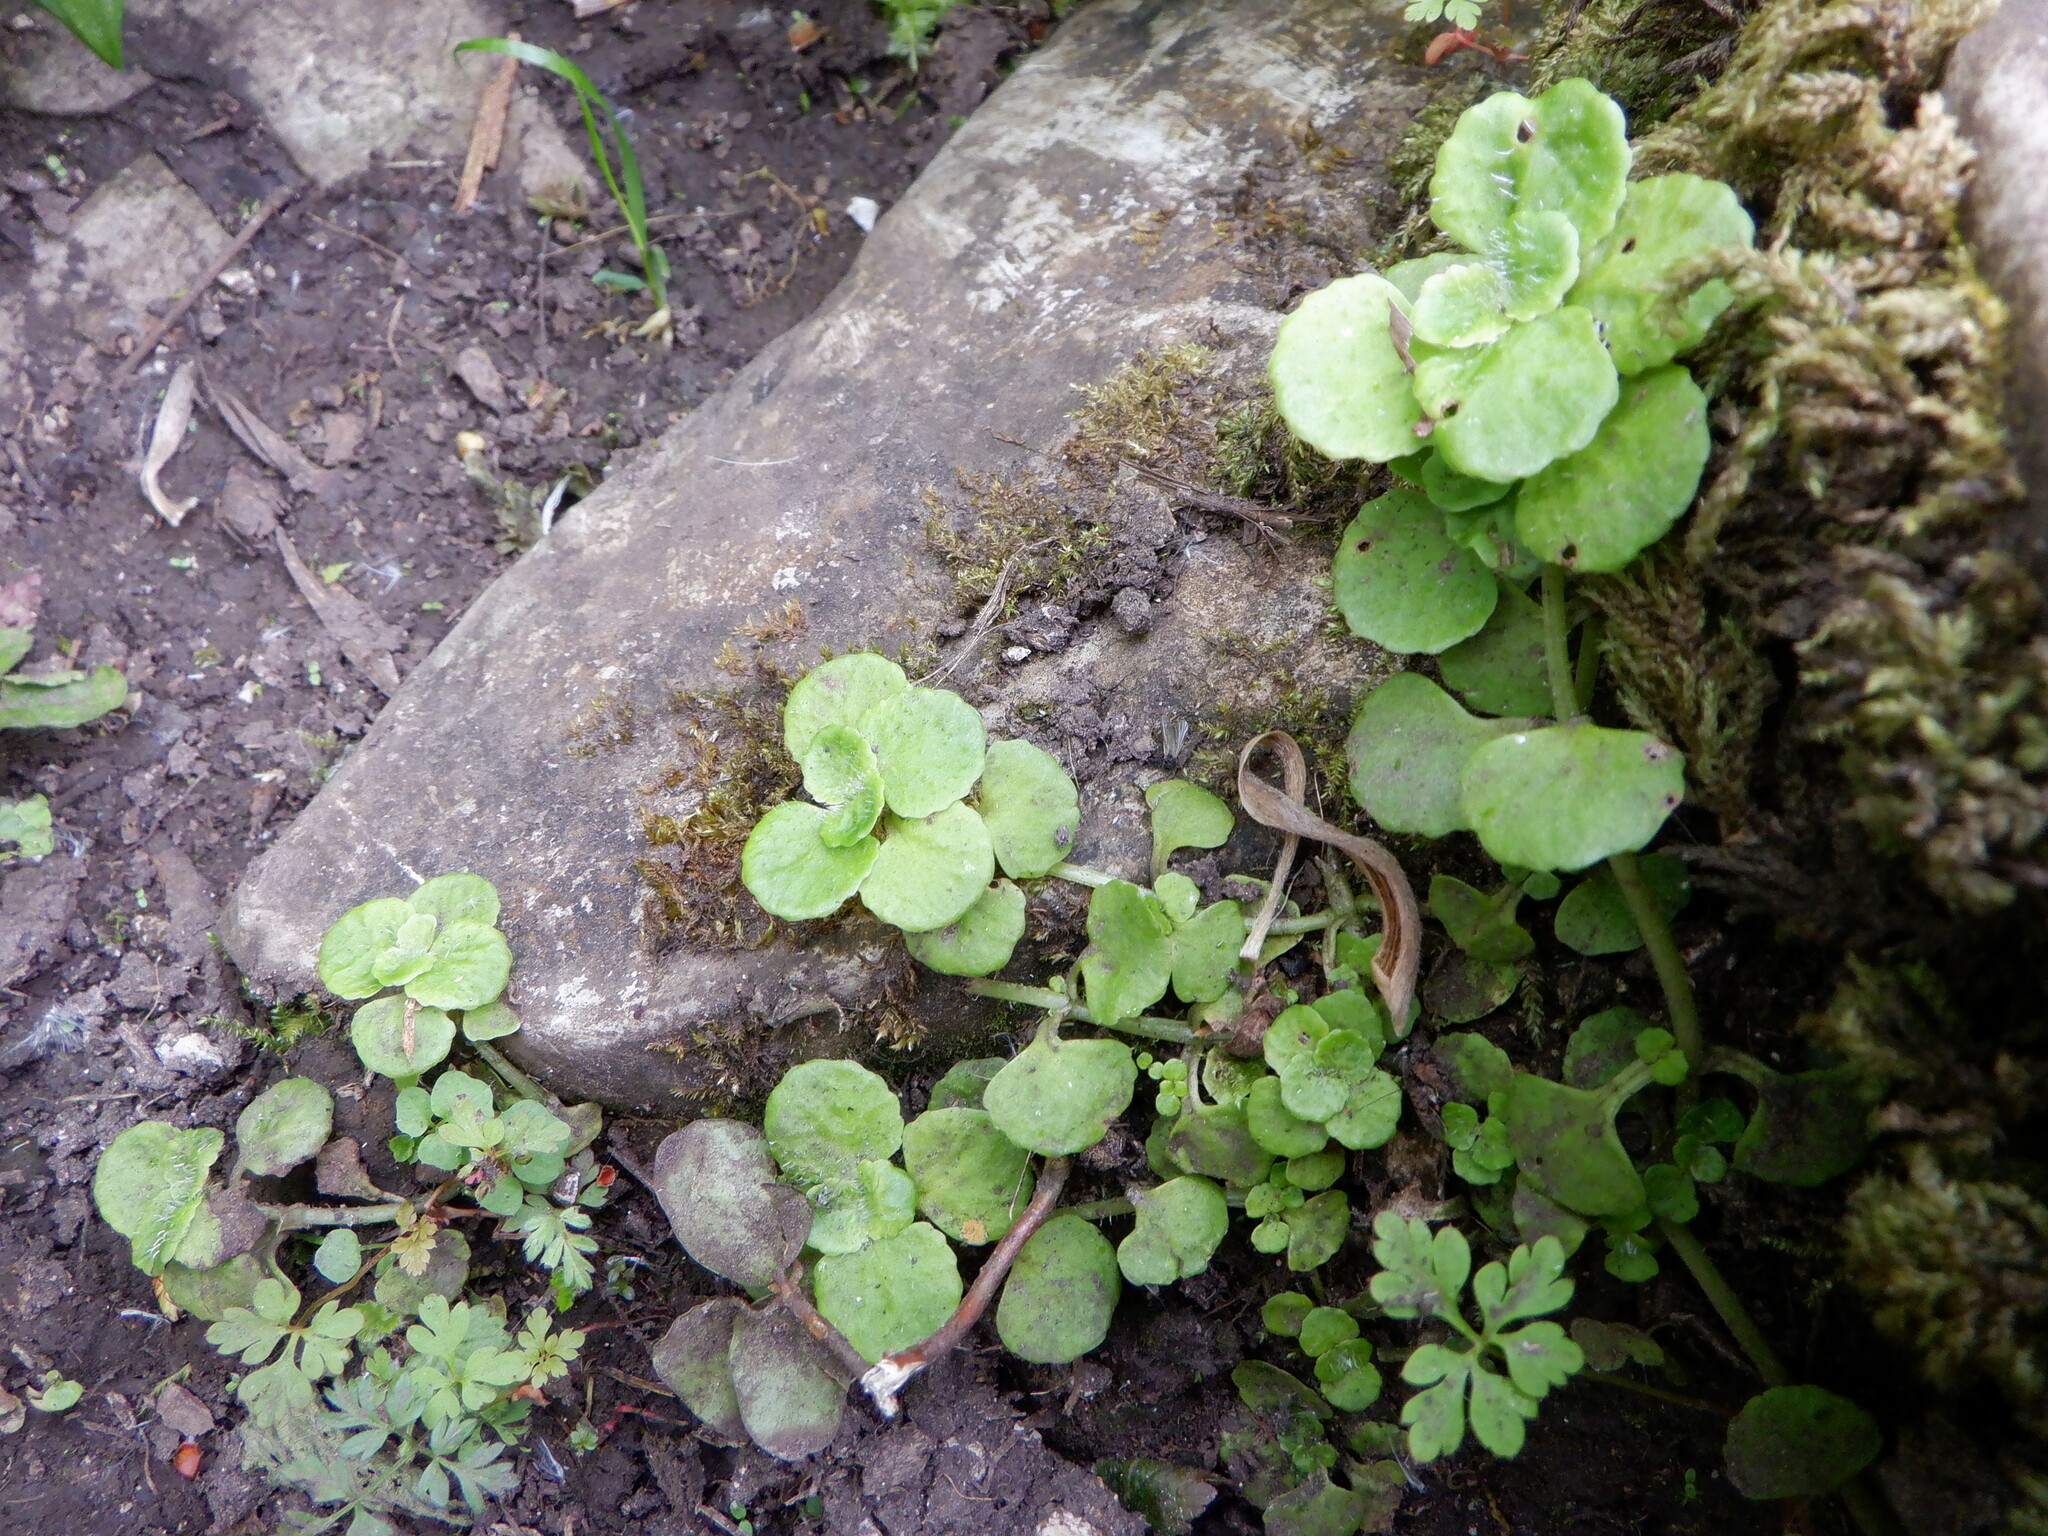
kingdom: Plantae
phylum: Tracheophyta
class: Magnoliopsida
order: Saxifragales
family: Saxifragaceae
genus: Chrysosplenium
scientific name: Chrysosplenium oppositifolium
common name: Opposite-leaved golden-saxifrage
